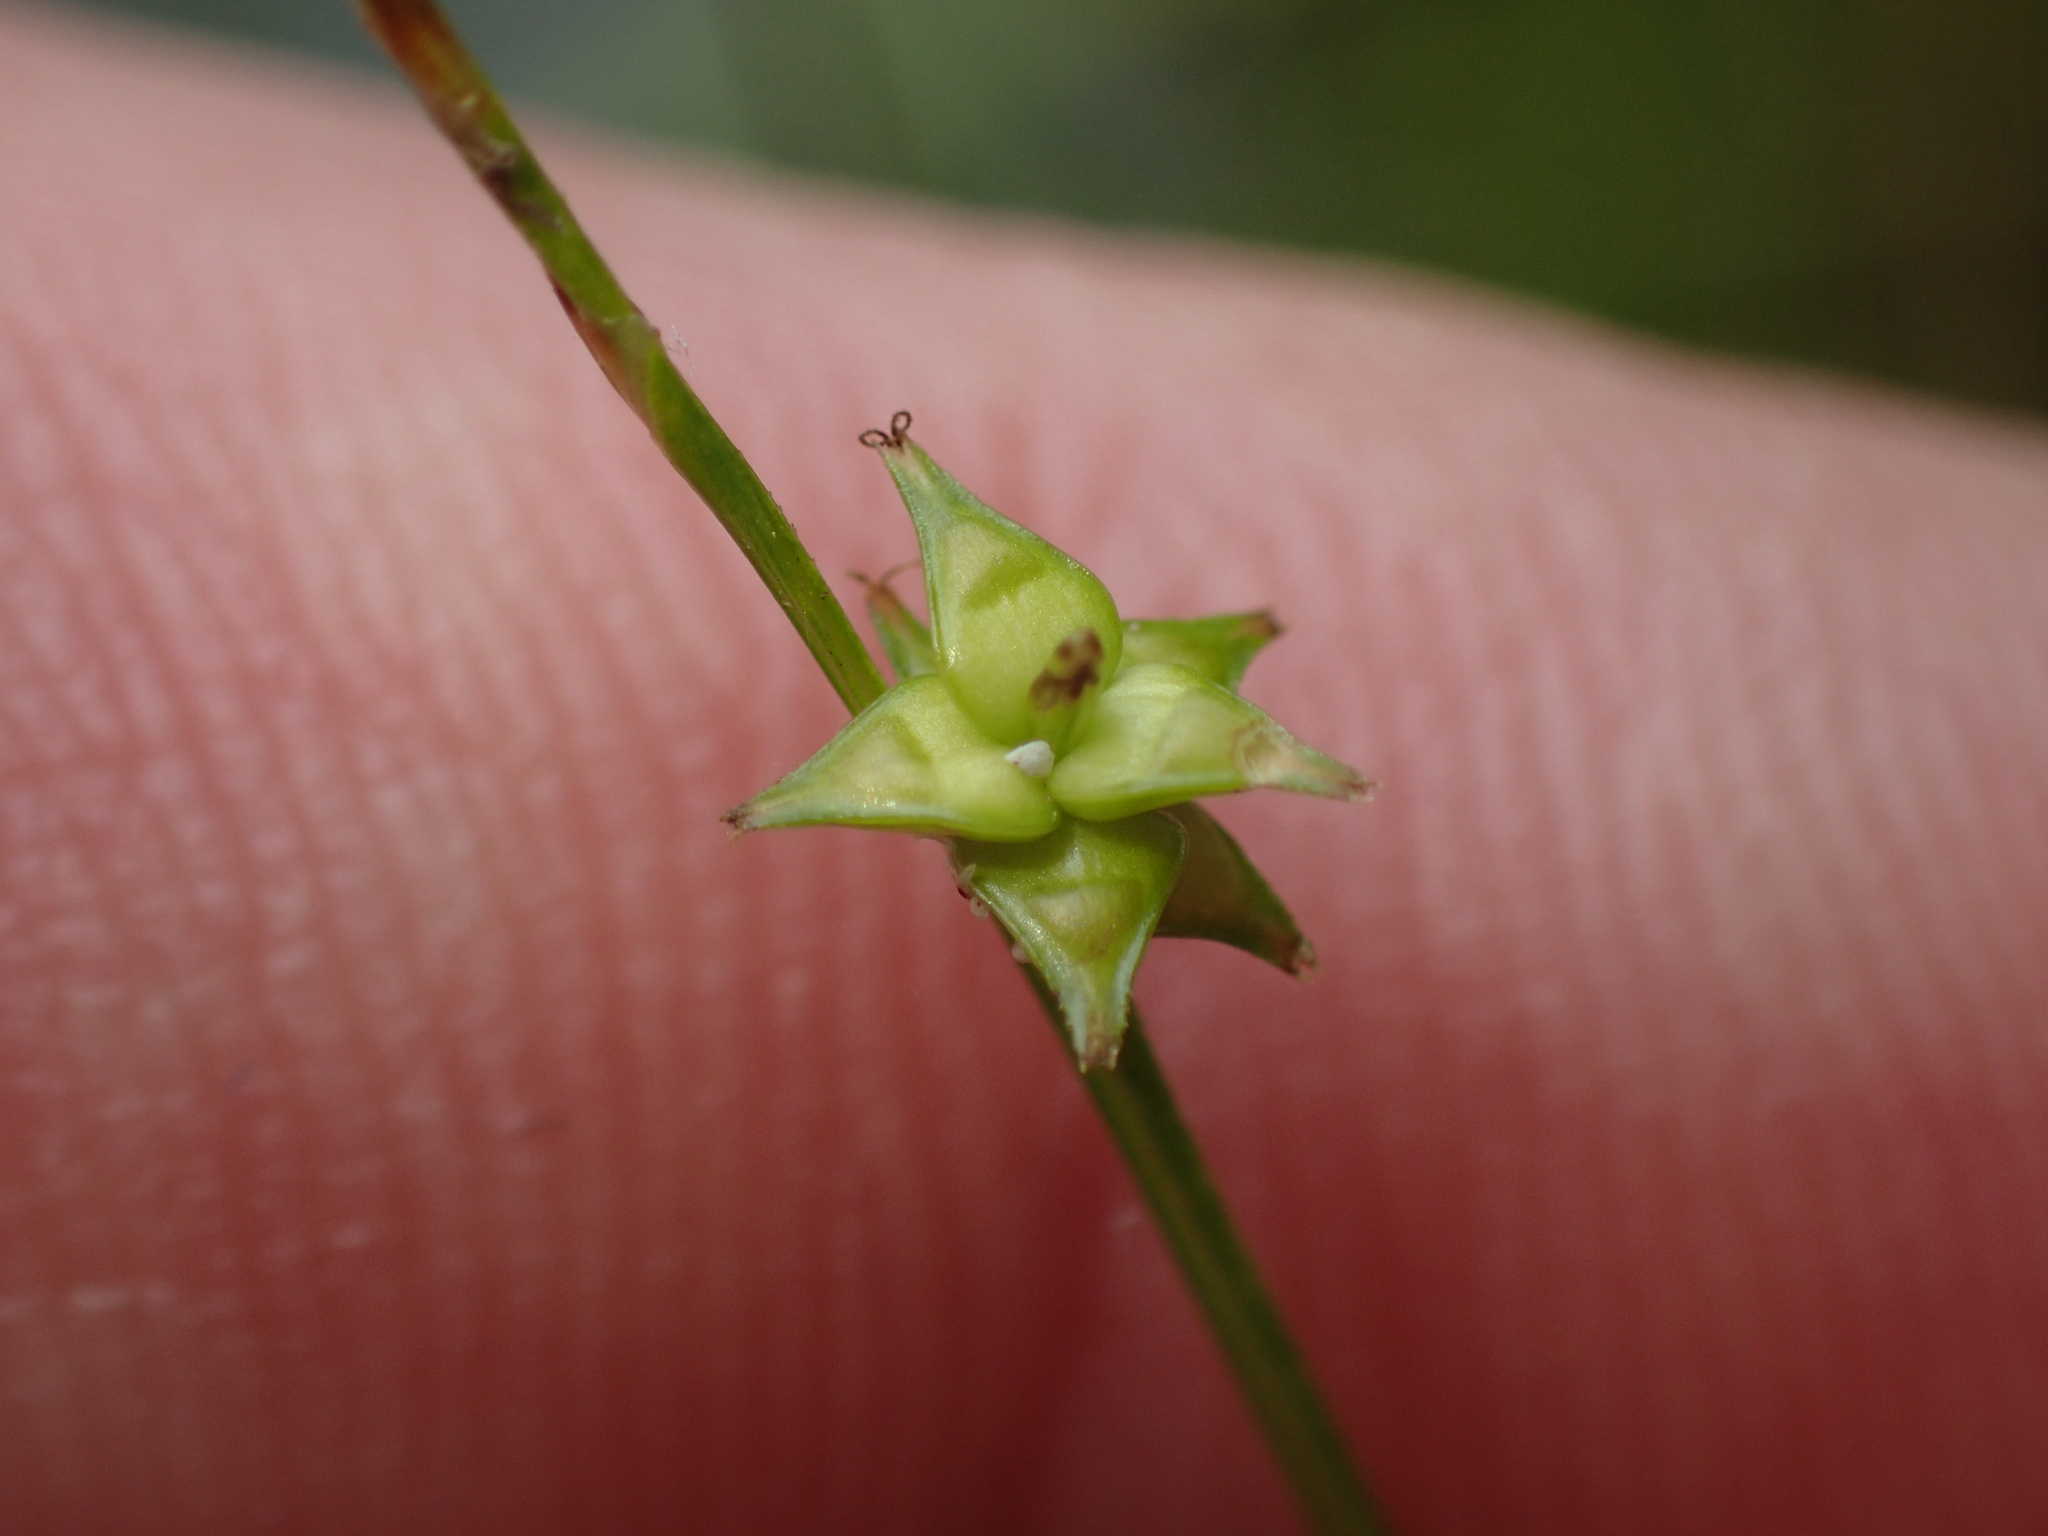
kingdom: Plantae
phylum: Tracheophyta
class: Liliopsida
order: Poales
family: Cyperaceae
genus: Carex
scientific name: Carex atlantica
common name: Atlantic sedge
